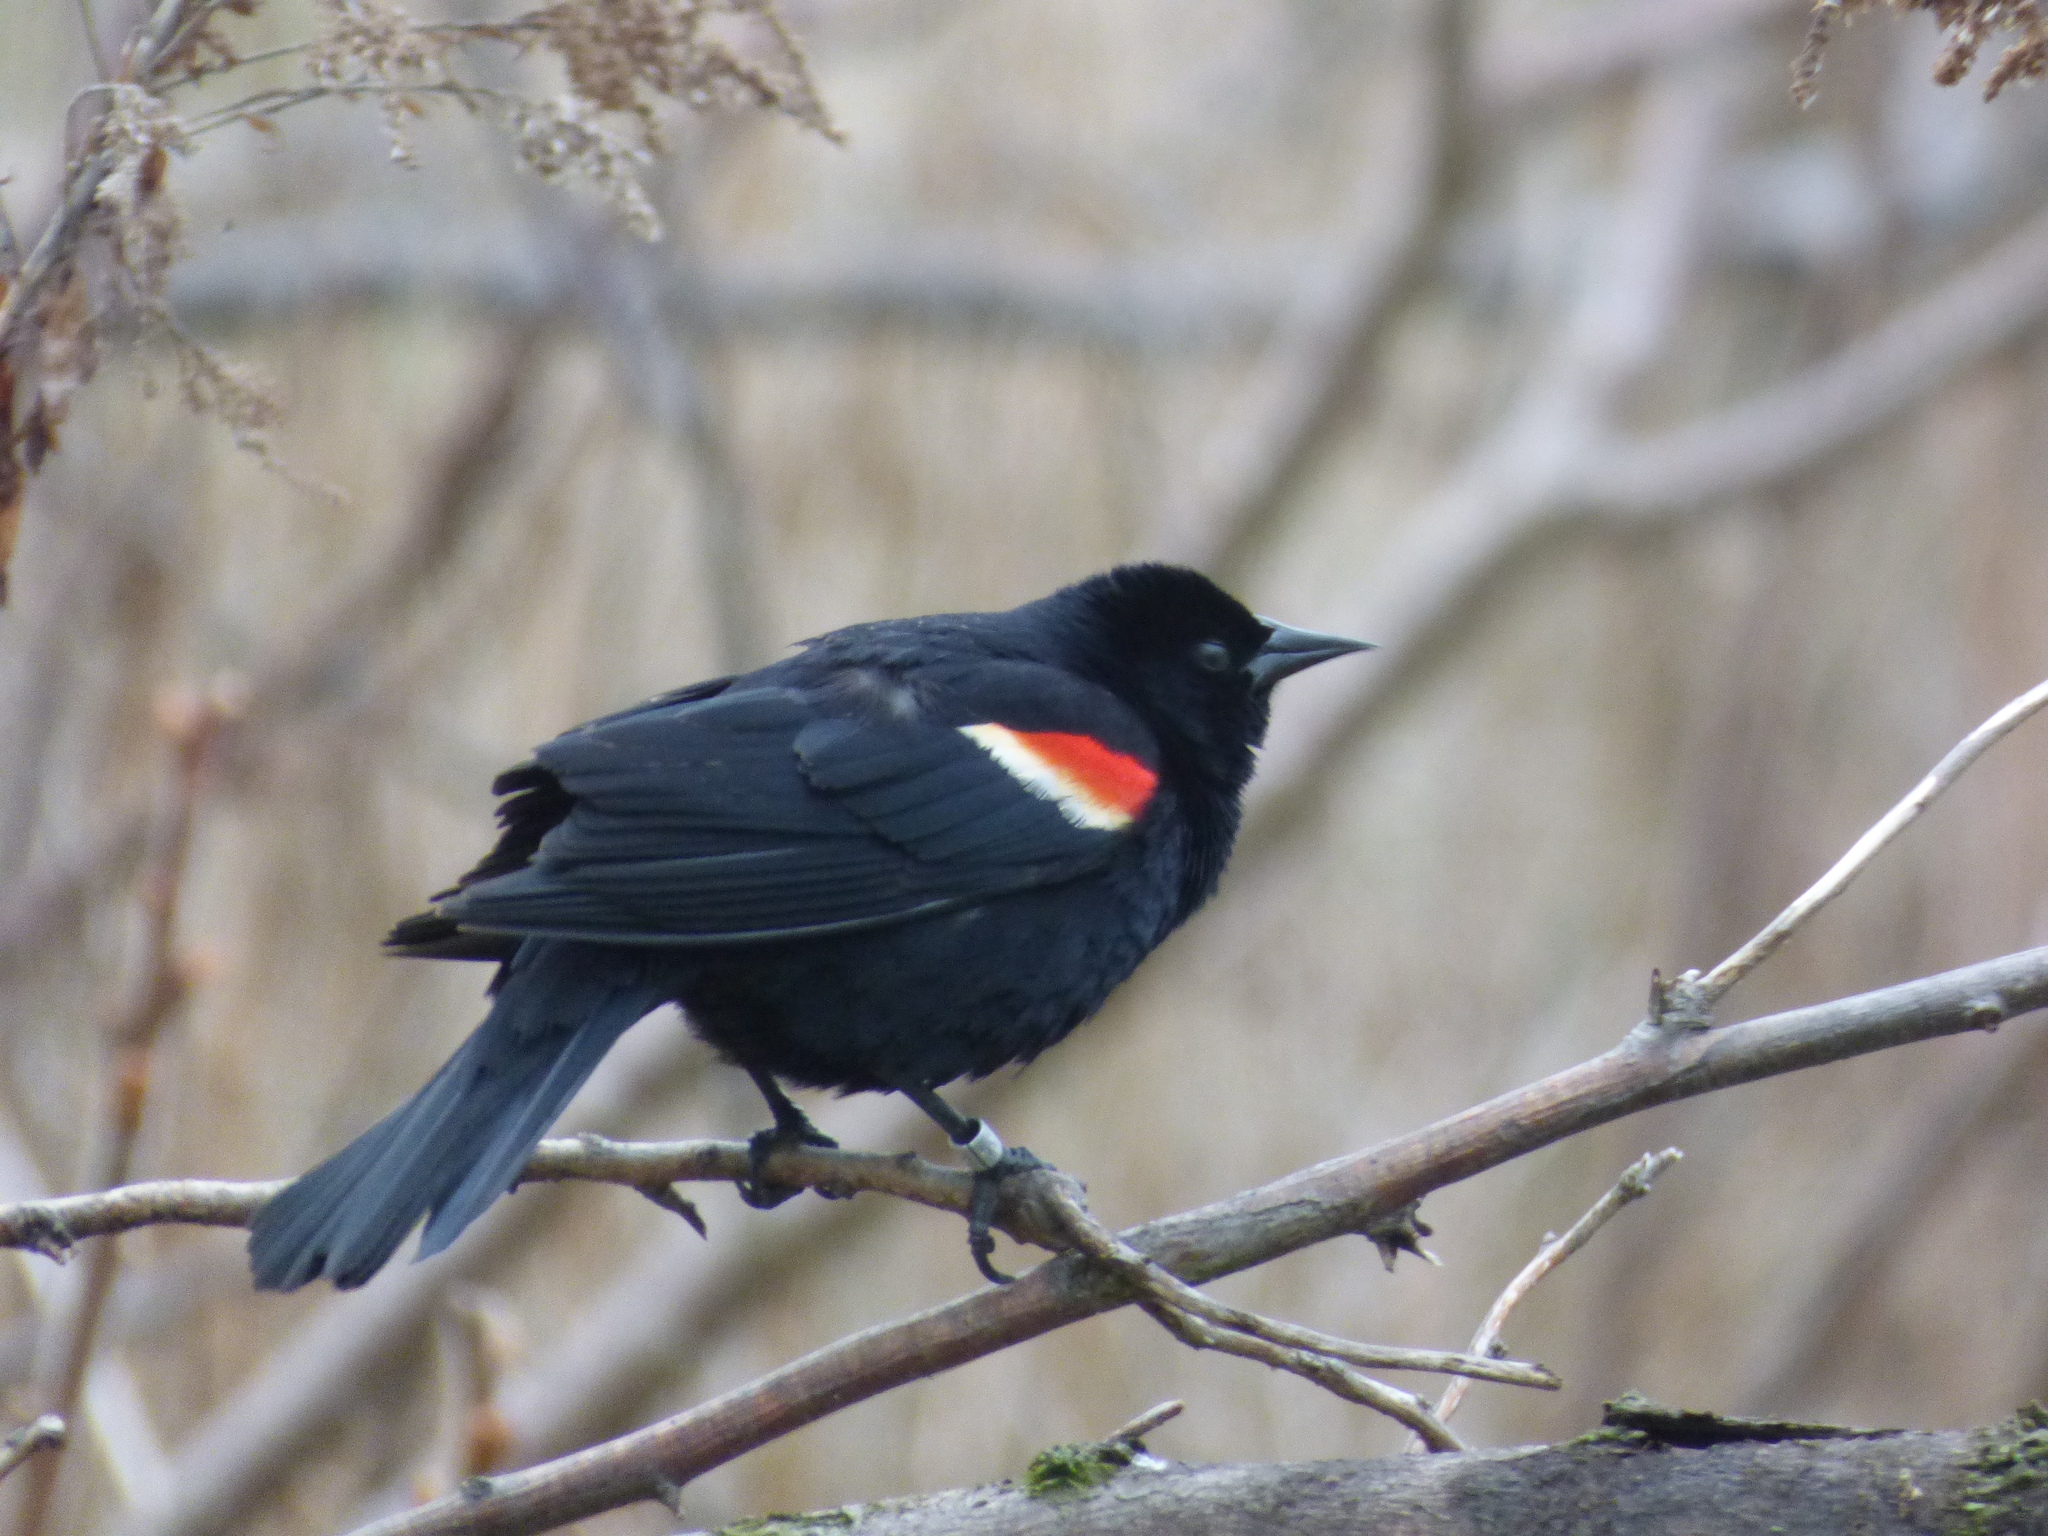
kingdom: Animalia
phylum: Chordata
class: Aves
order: Passeriformes
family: Icteridae
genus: Agelaius
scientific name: Agelaius phoeniceus
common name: Red-winged blackbird
